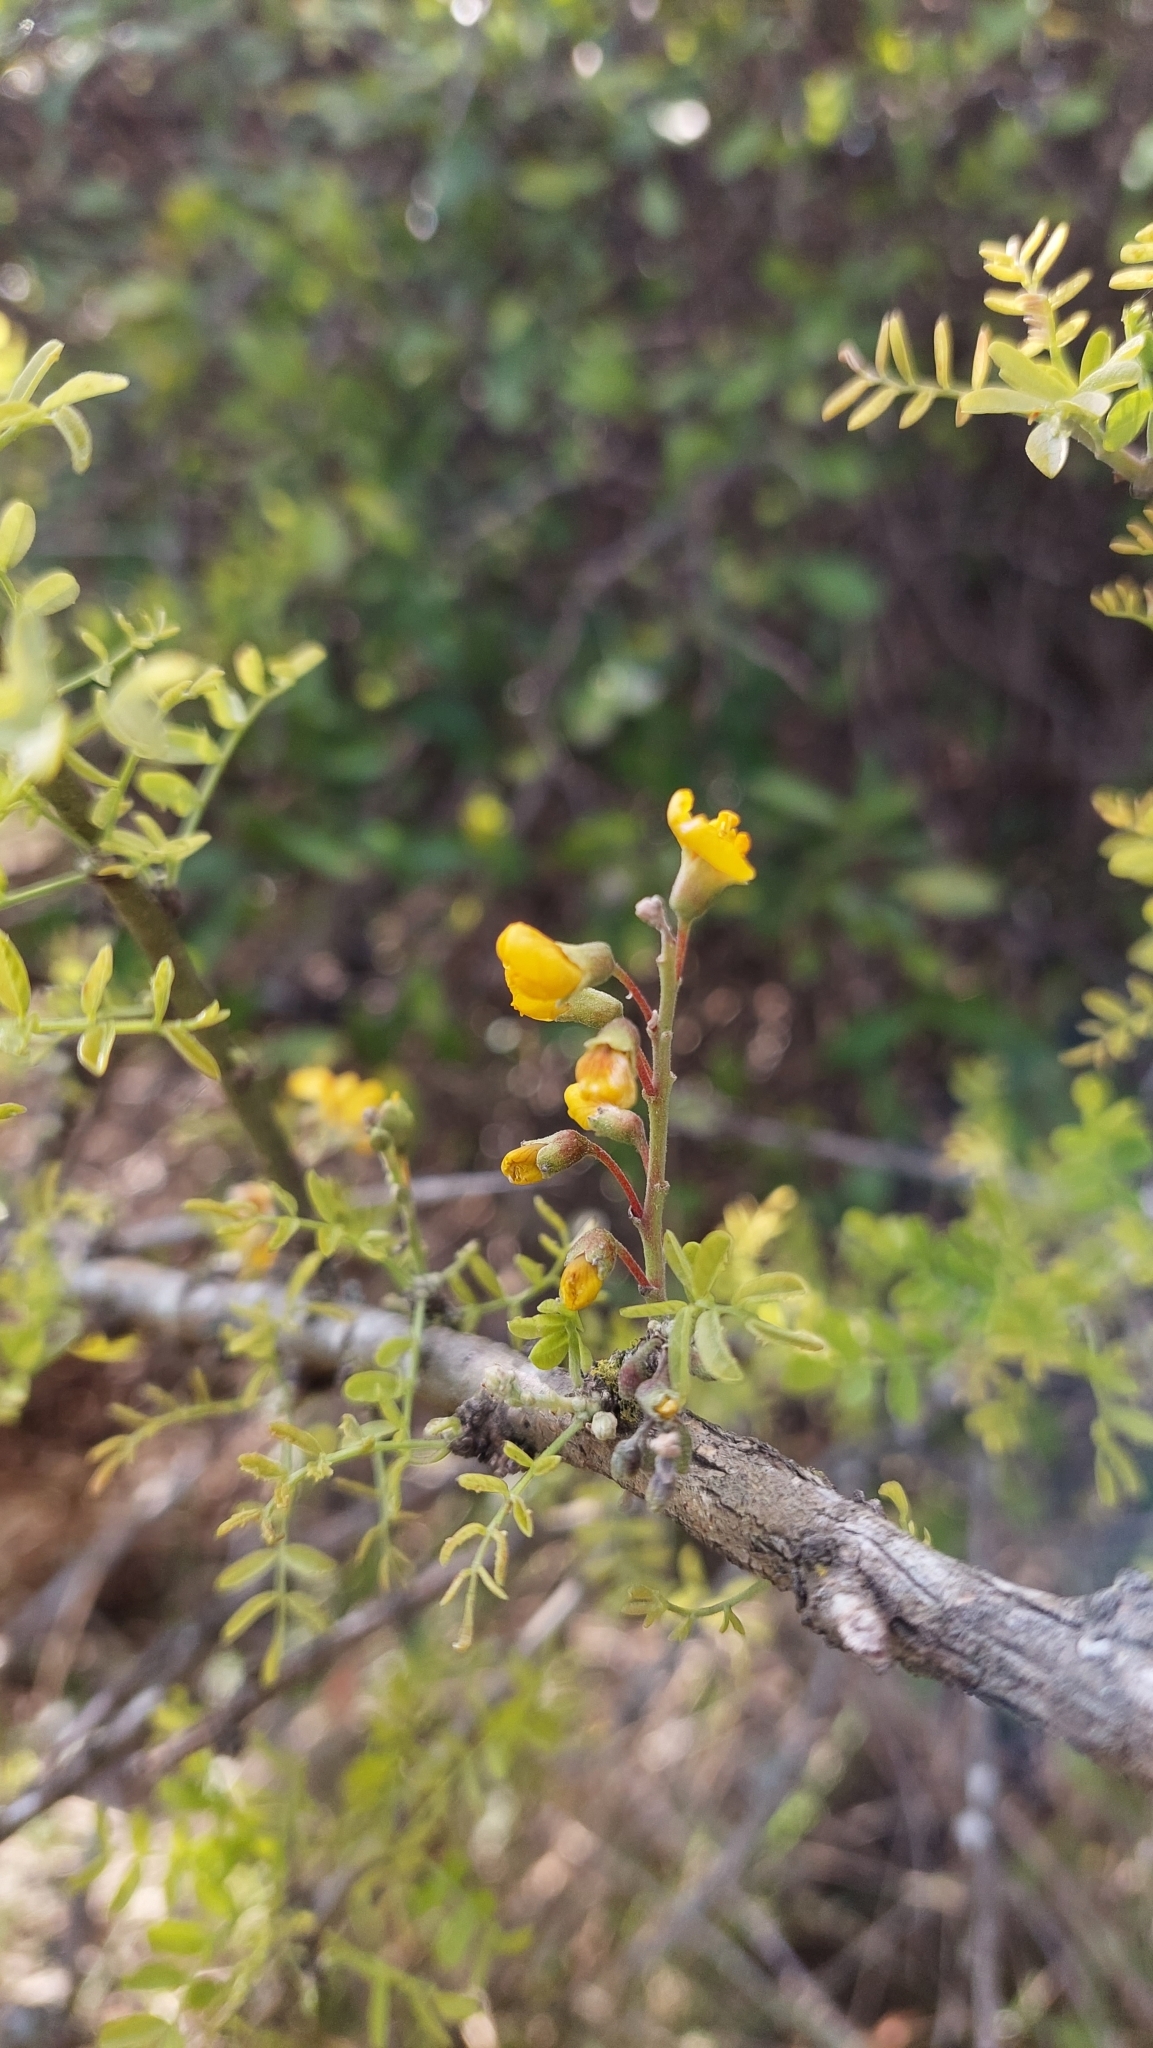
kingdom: Plantae
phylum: Tracheophyta
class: Magnoliopsida
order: Fabales
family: Fabaceae
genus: Geoffroea
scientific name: Geoffroea decorticans
